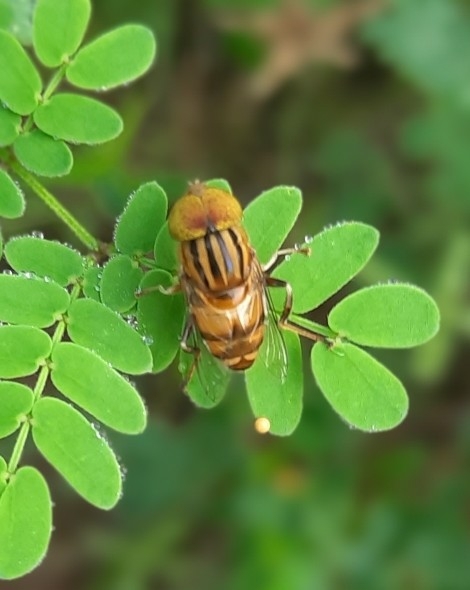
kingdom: Animalia
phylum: Arthropoda
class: Insecta
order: Diptera
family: Syrphidae
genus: Eristalinus
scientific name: Eristalinus arvorum
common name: Syrphid fly
